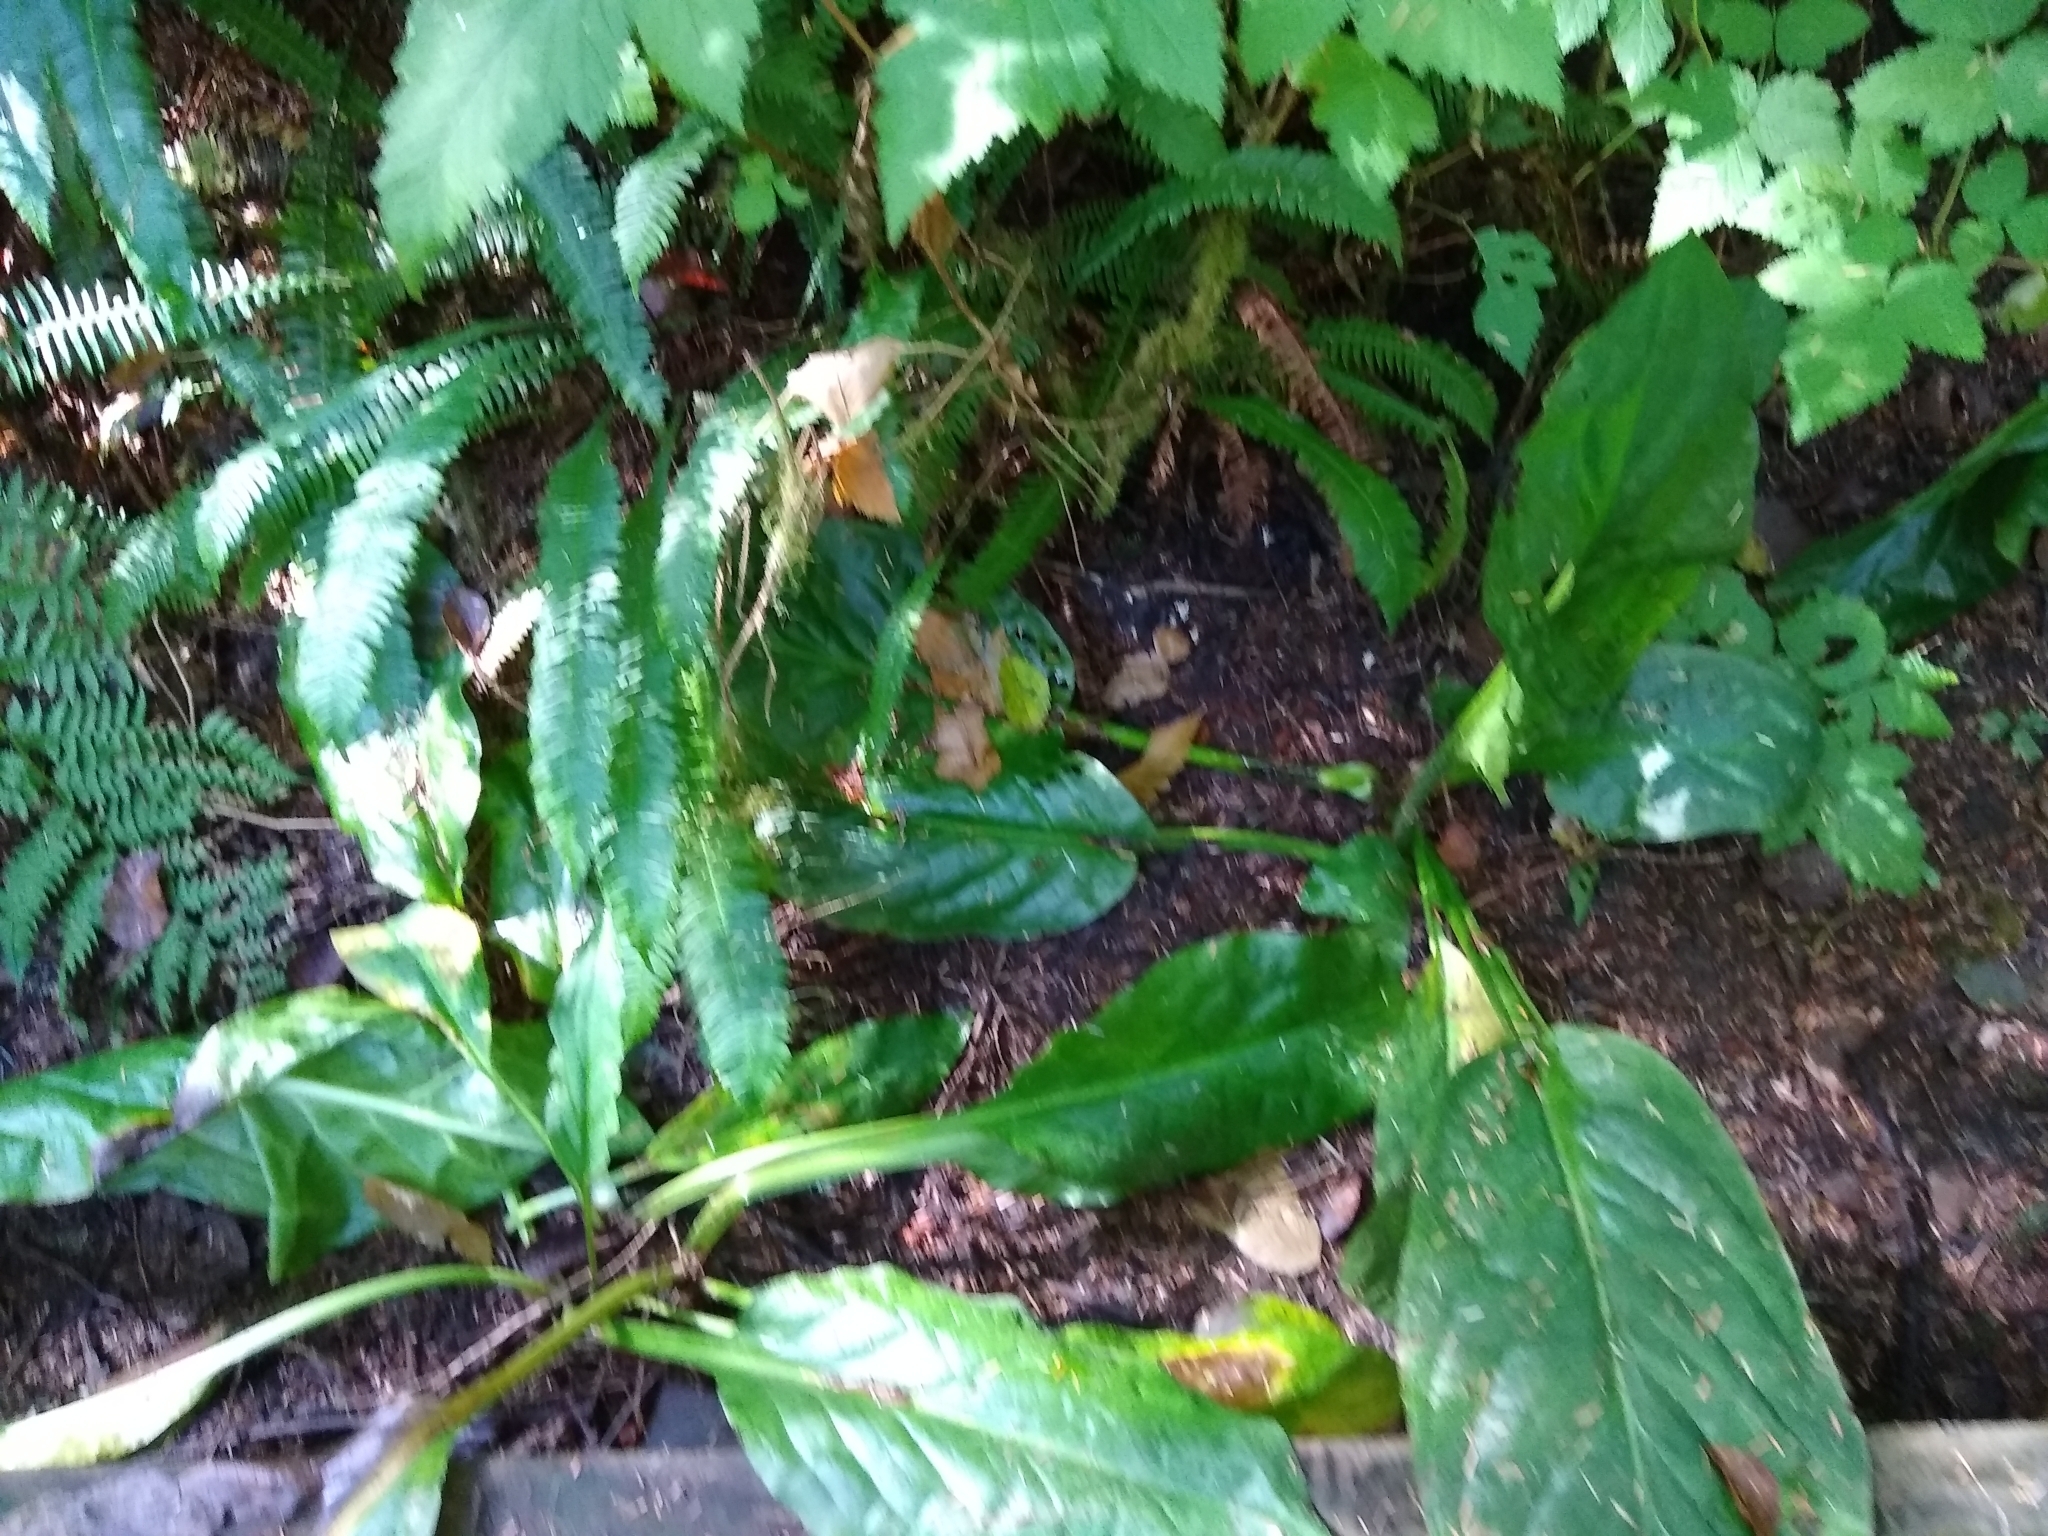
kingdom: Plantae
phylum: Tracheophyta
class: Liliopsida
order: Alismatales
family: Araceae
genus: Lysichiton
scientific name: Lysichiton americanus
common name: American skunk cabbage
